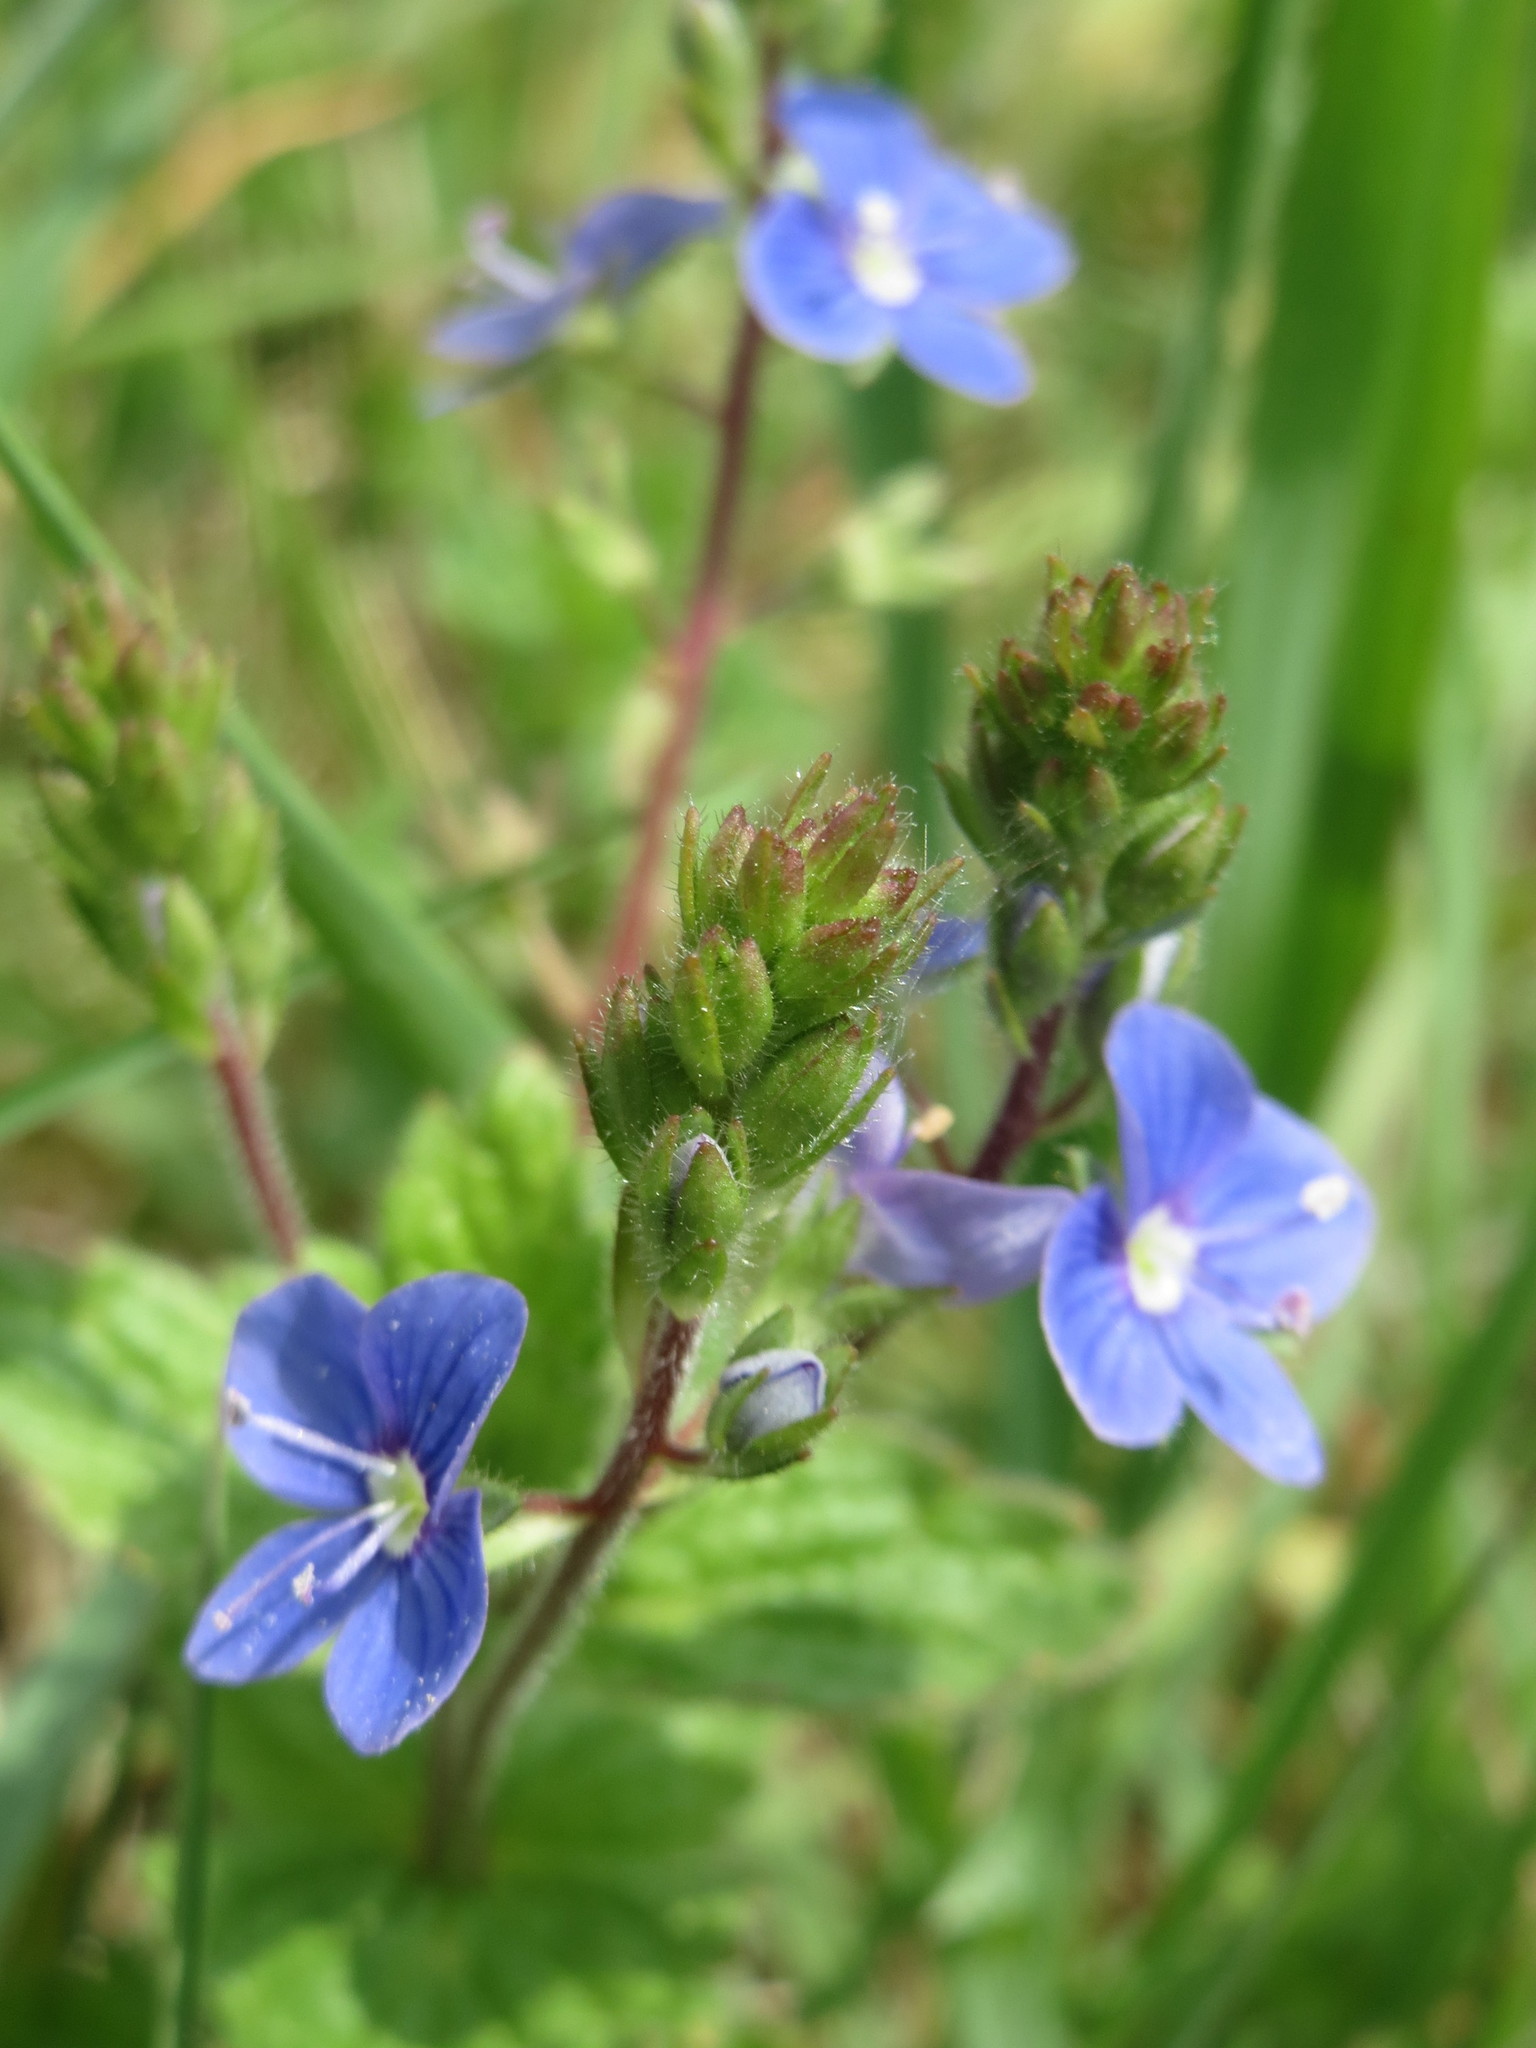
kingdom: Plantae
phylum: Tracheophyta
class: Magnoliopsida
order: Lamiales
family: Plantaginaceae
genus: Veronica
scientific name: Veronica chamaedrys
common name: Germander speedwell
